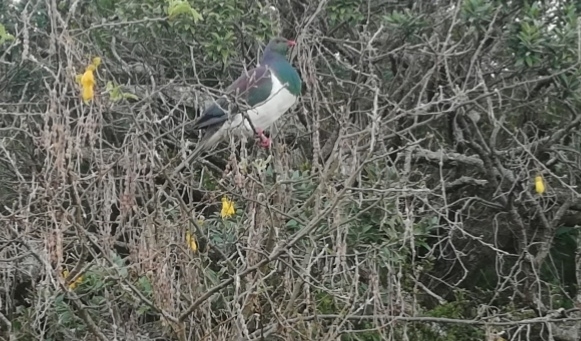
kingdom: Animalia
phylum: Chordata
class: Aves
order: Columbiformes
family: Columbidae
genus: Hemiphaga
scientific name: Hemiphaga novaeseelandiae
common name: New zealand pigeon
